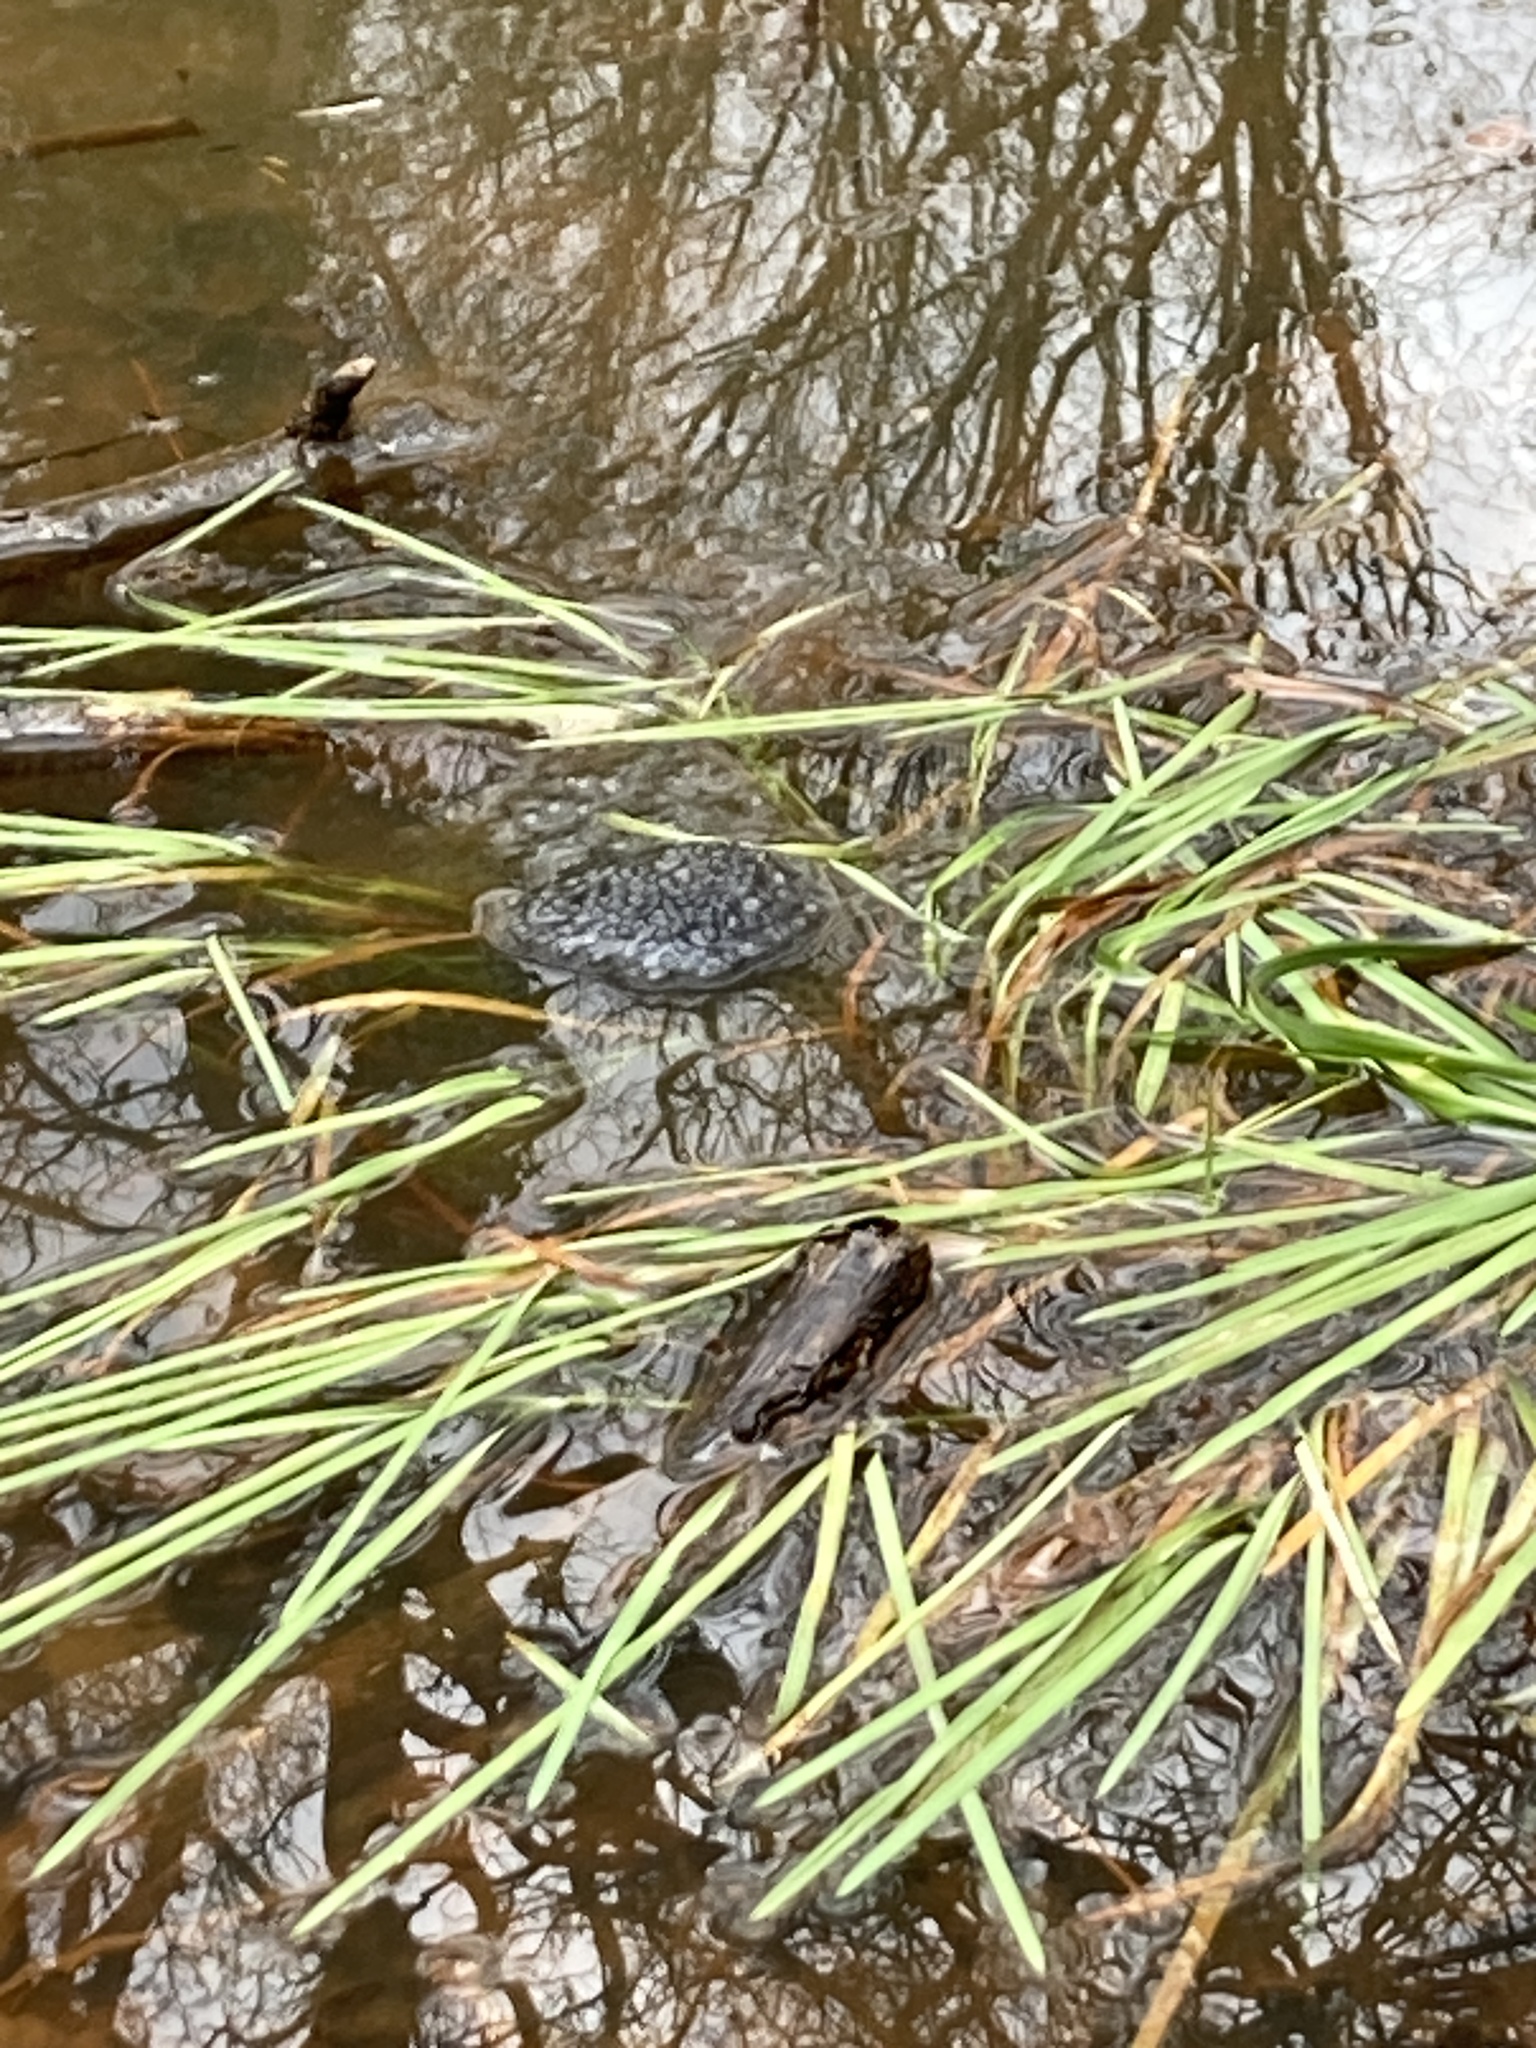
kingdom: Animalia
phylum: Chordata
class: Amphibia
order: Anura
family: Ranidae
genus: Rana
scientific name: Rana temporaria
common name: Common frog
